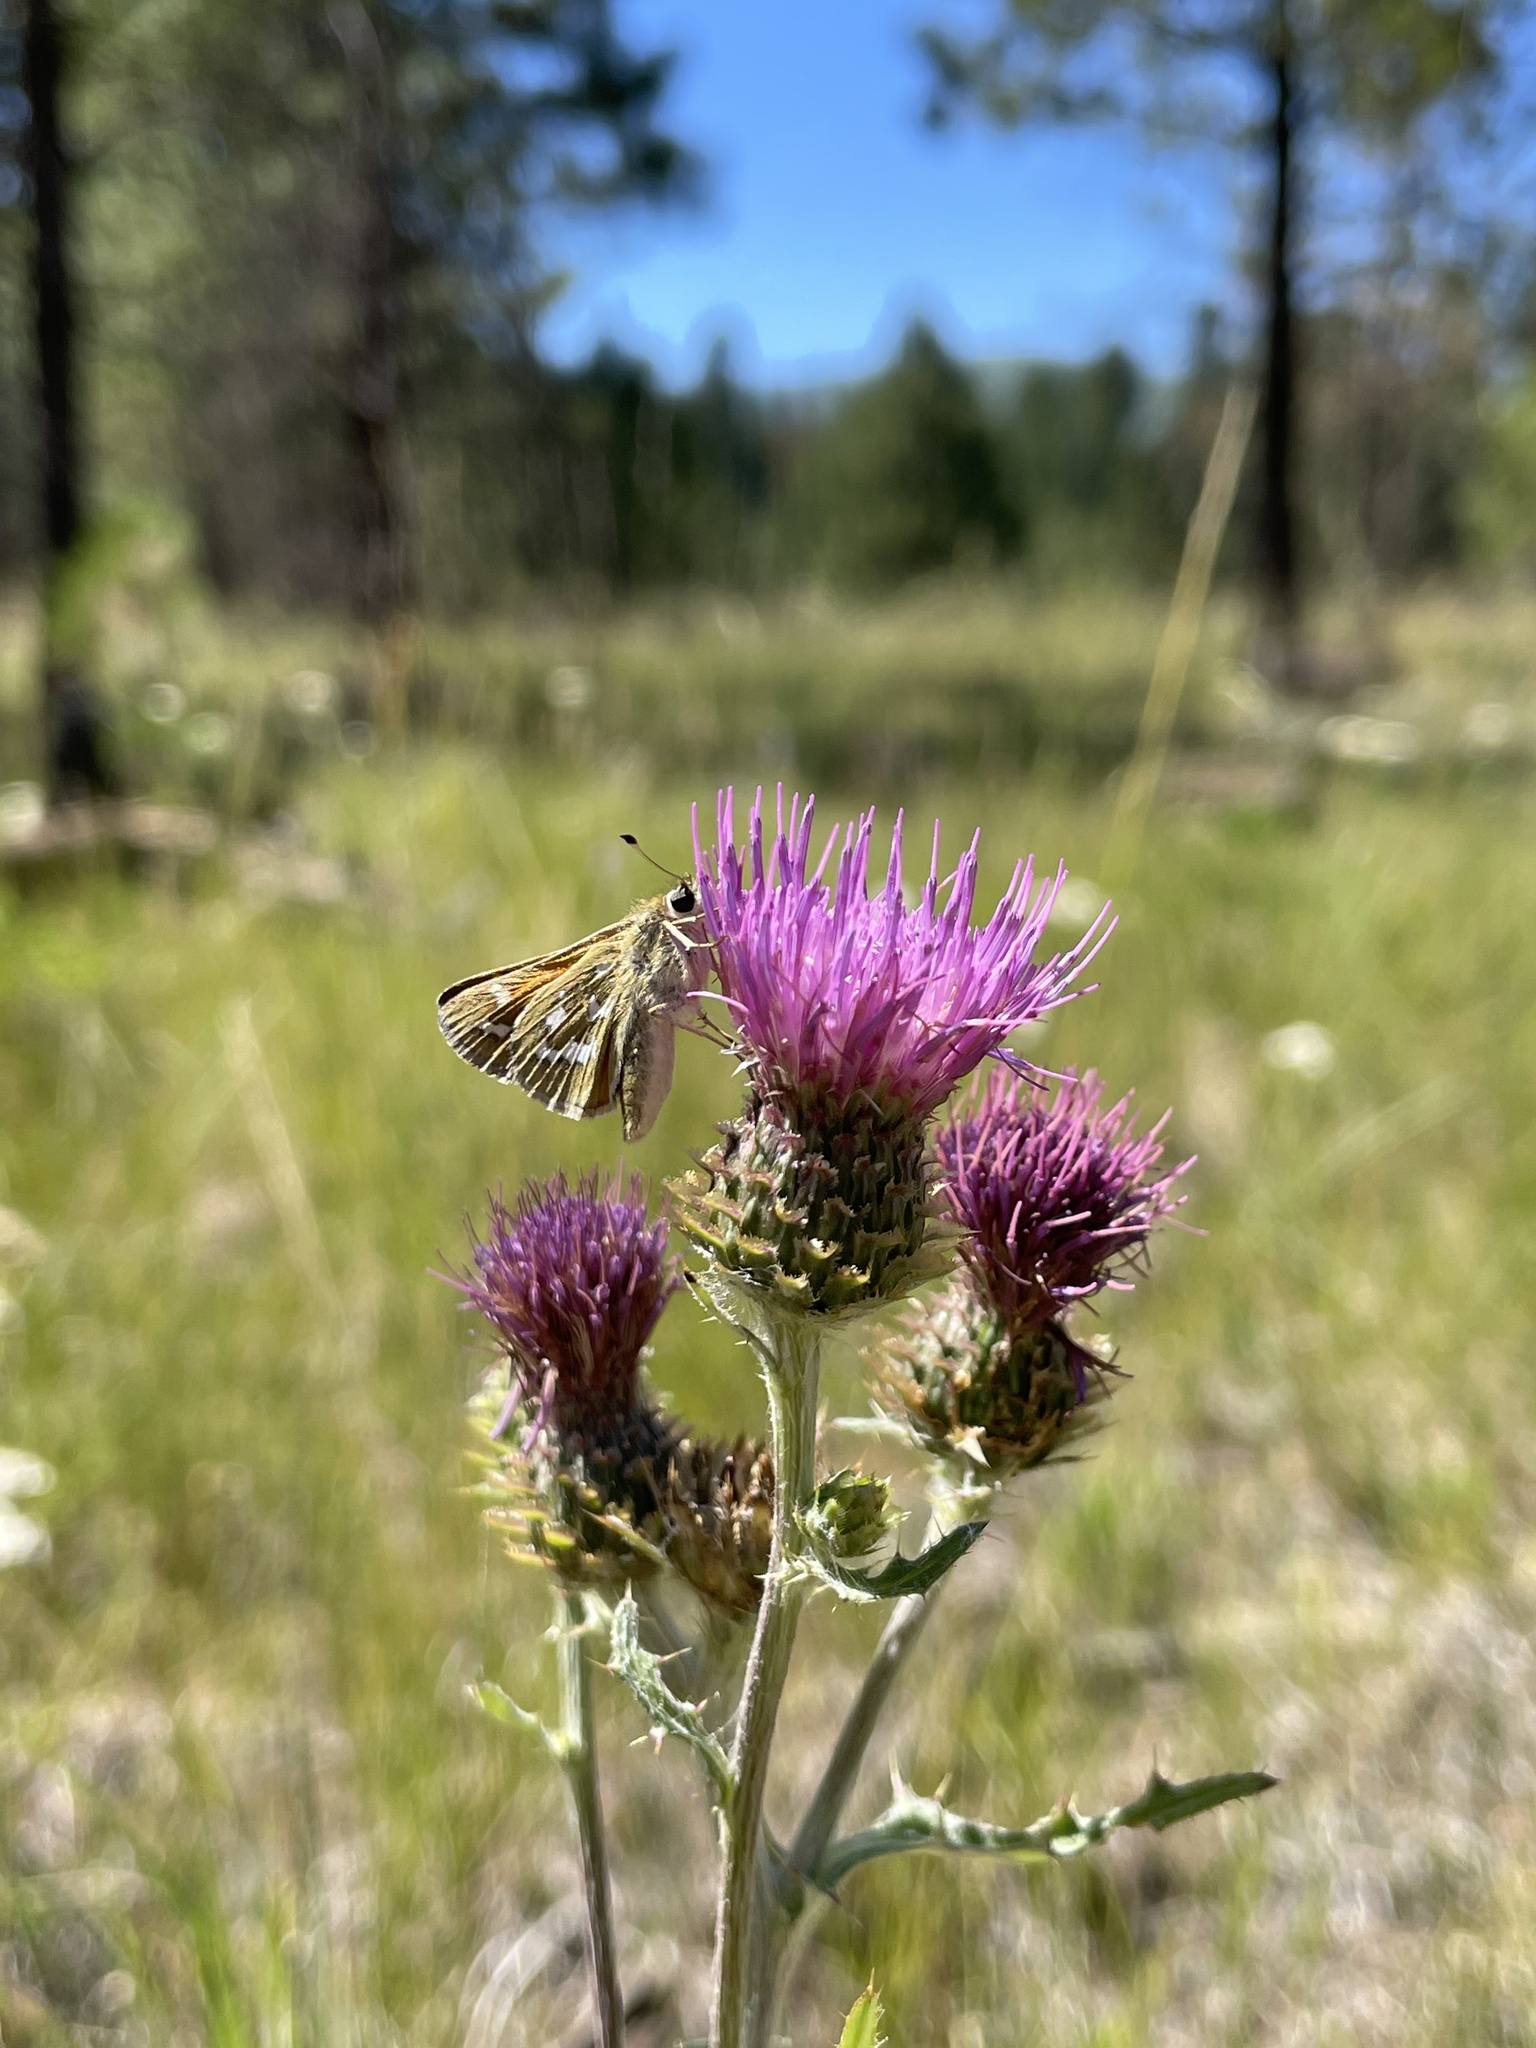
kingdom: Animalia
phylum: Arthropoda
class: Insecta
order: Lepidoptera
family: Hesperiidae
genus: Hesperia
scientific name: Hesperia comma
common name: Common branded skipper
